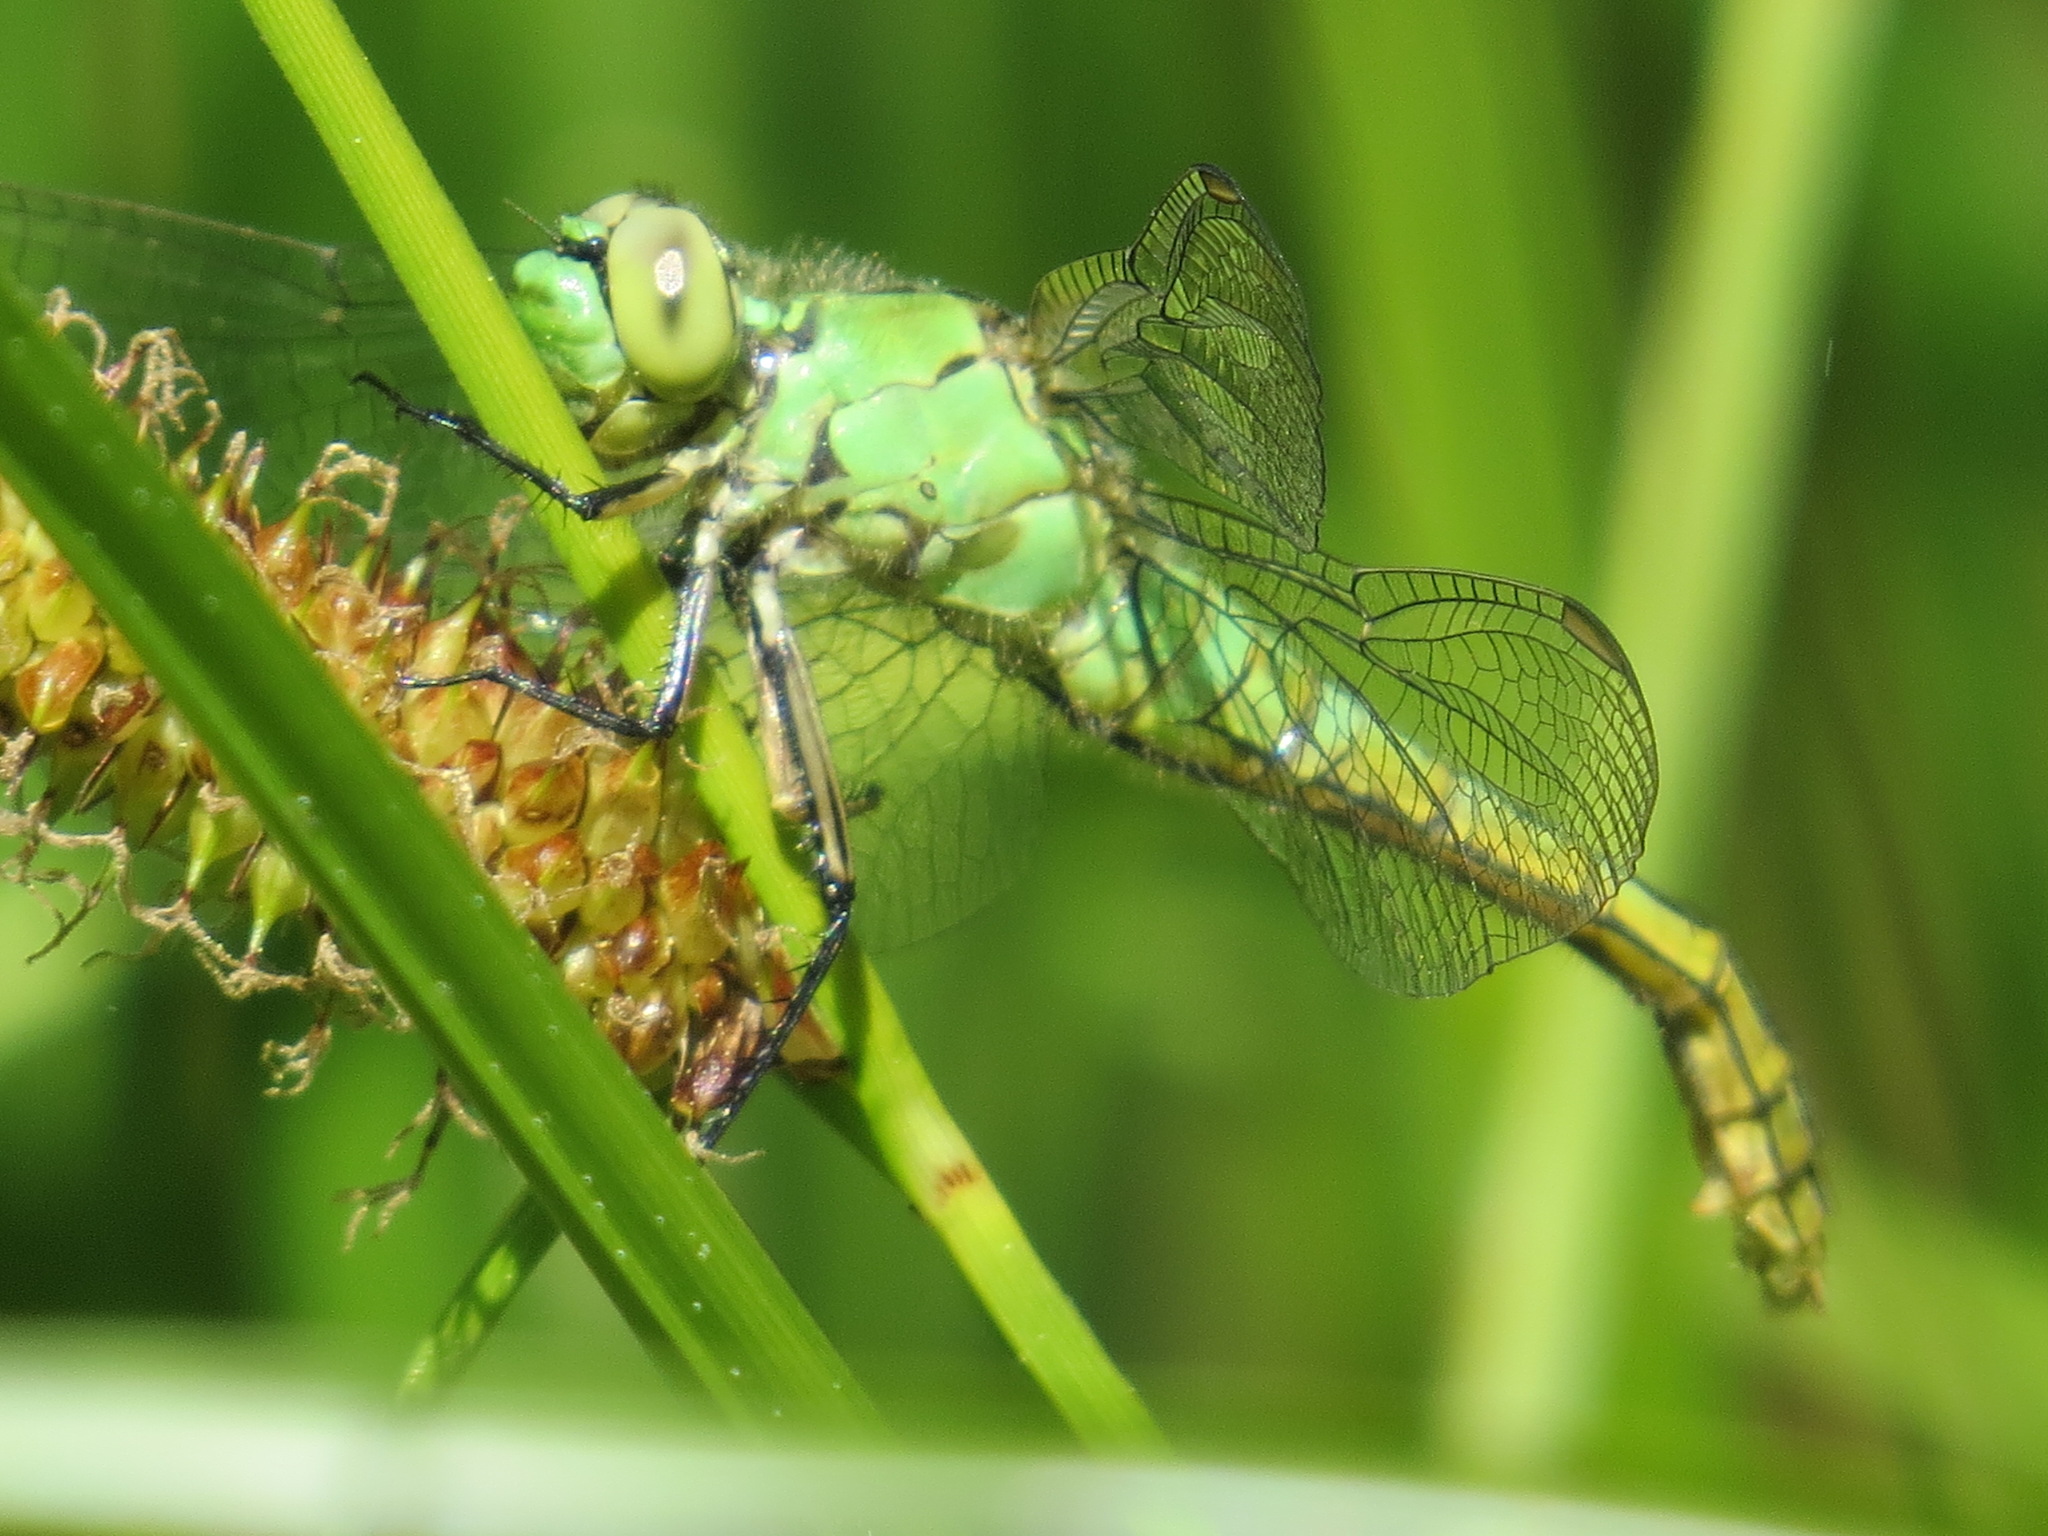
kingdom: Animalia
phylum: Arthropoda
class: Insecta
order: Odonata
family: Libellulidae
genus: Erythemis
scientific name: Erythemis collocata
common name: Western pondhawk
